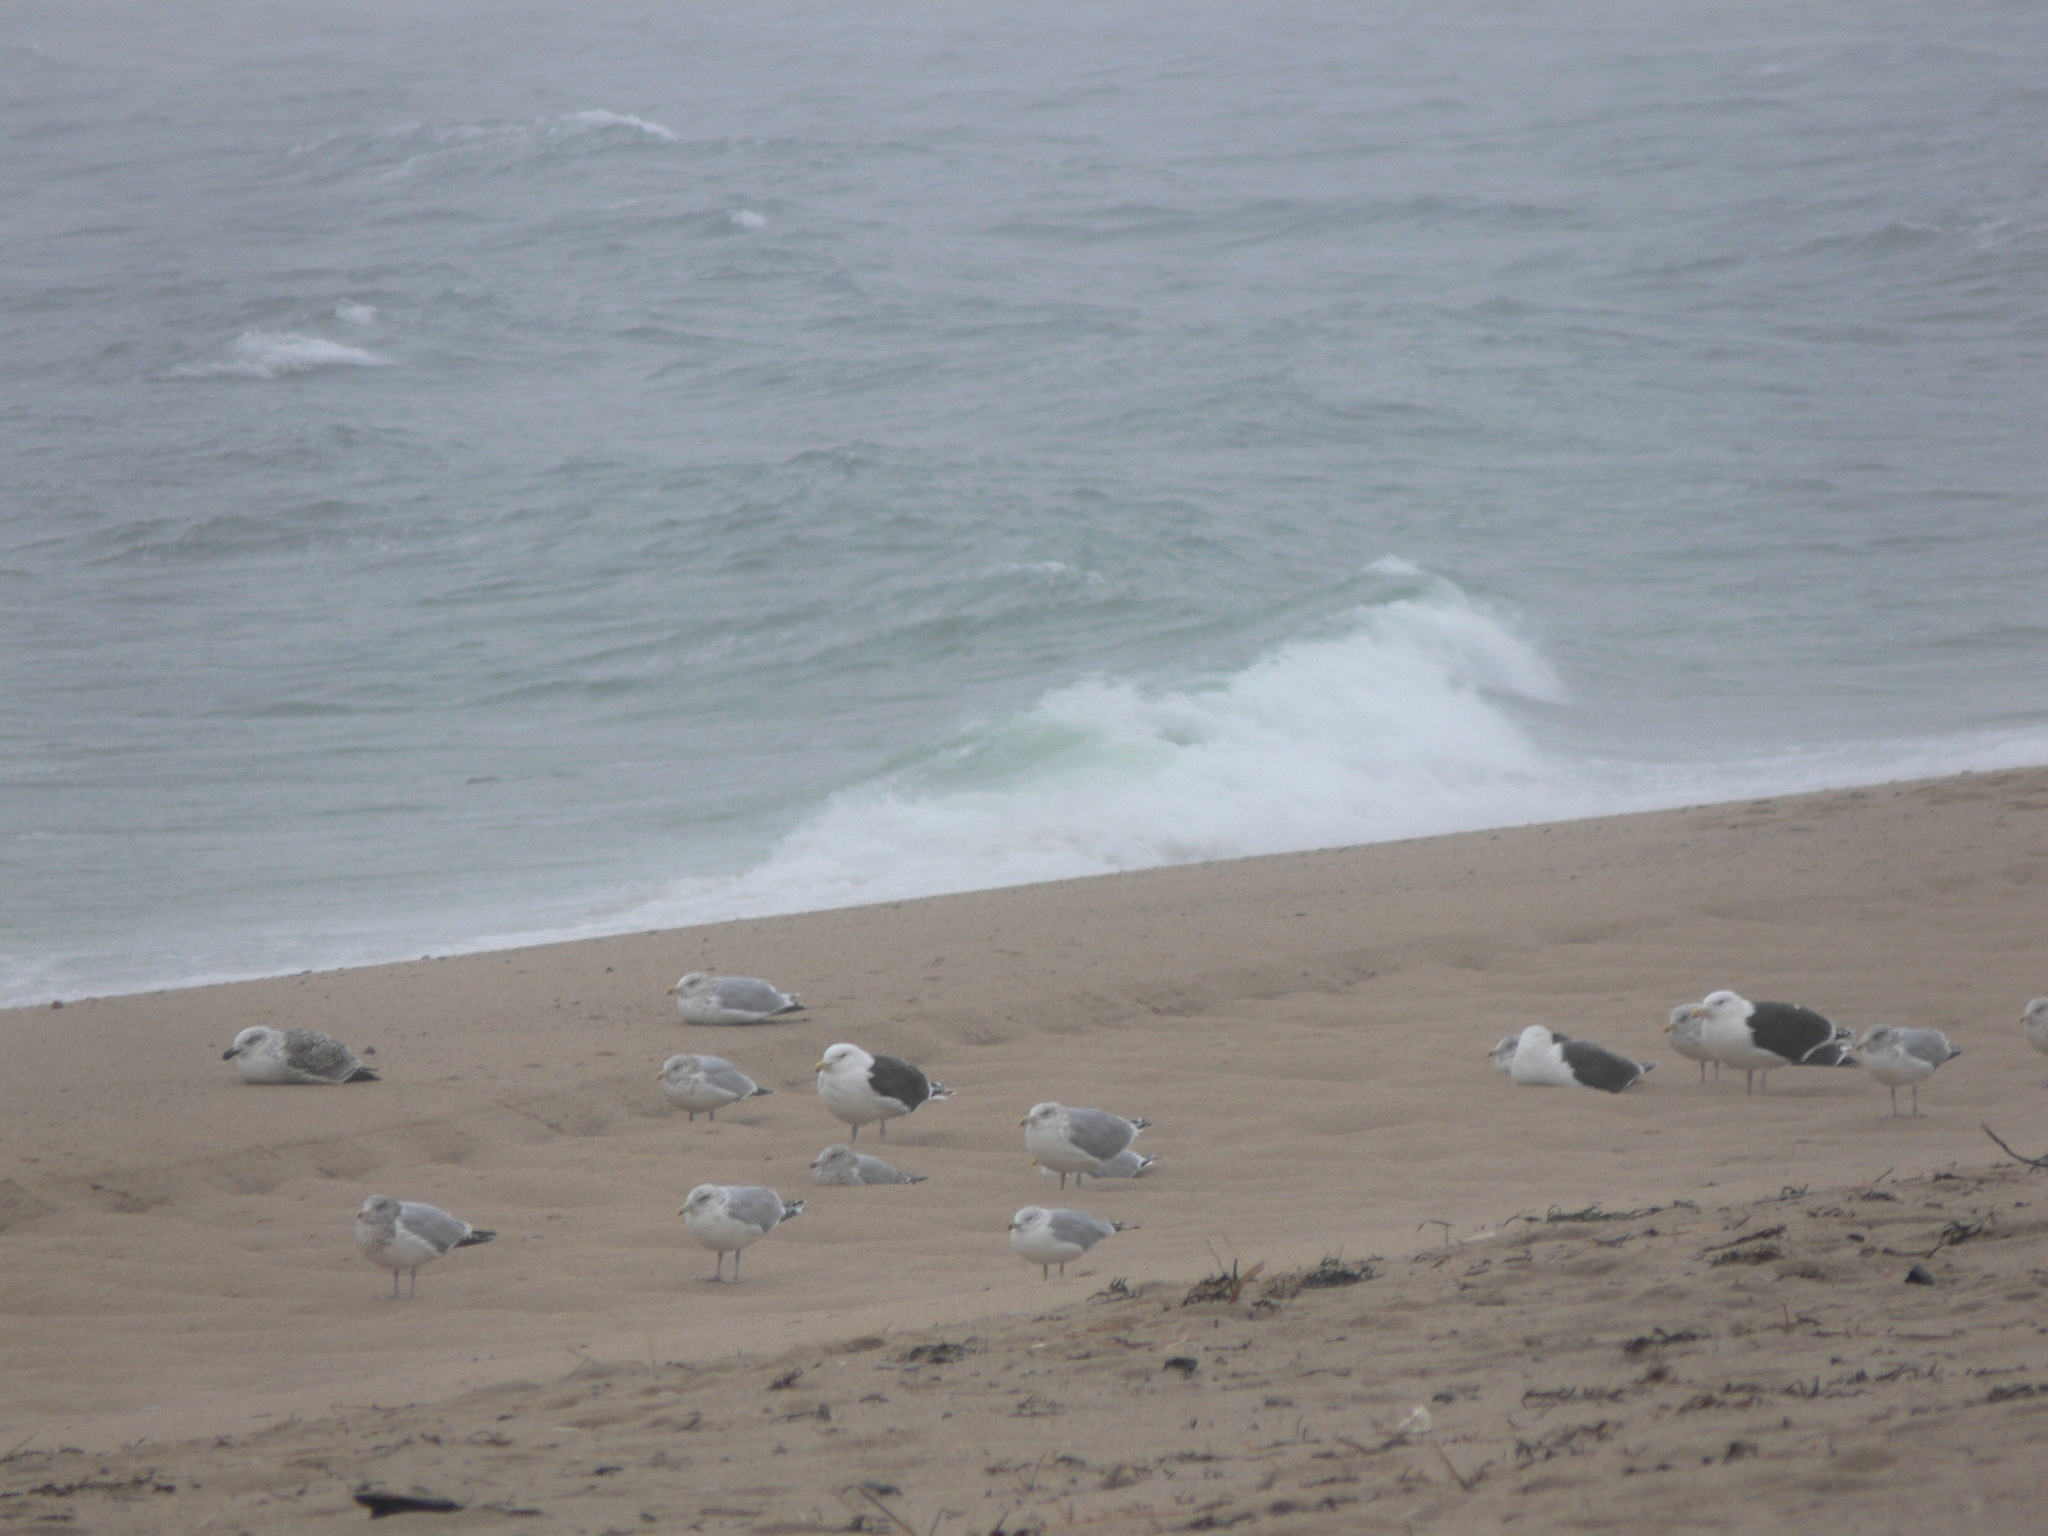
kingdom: Animalia
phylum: Chordata
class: Aves
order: Charadriiformes
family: Laridae
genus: Larus
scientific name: Larus marinus
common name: Great black-backed gull
